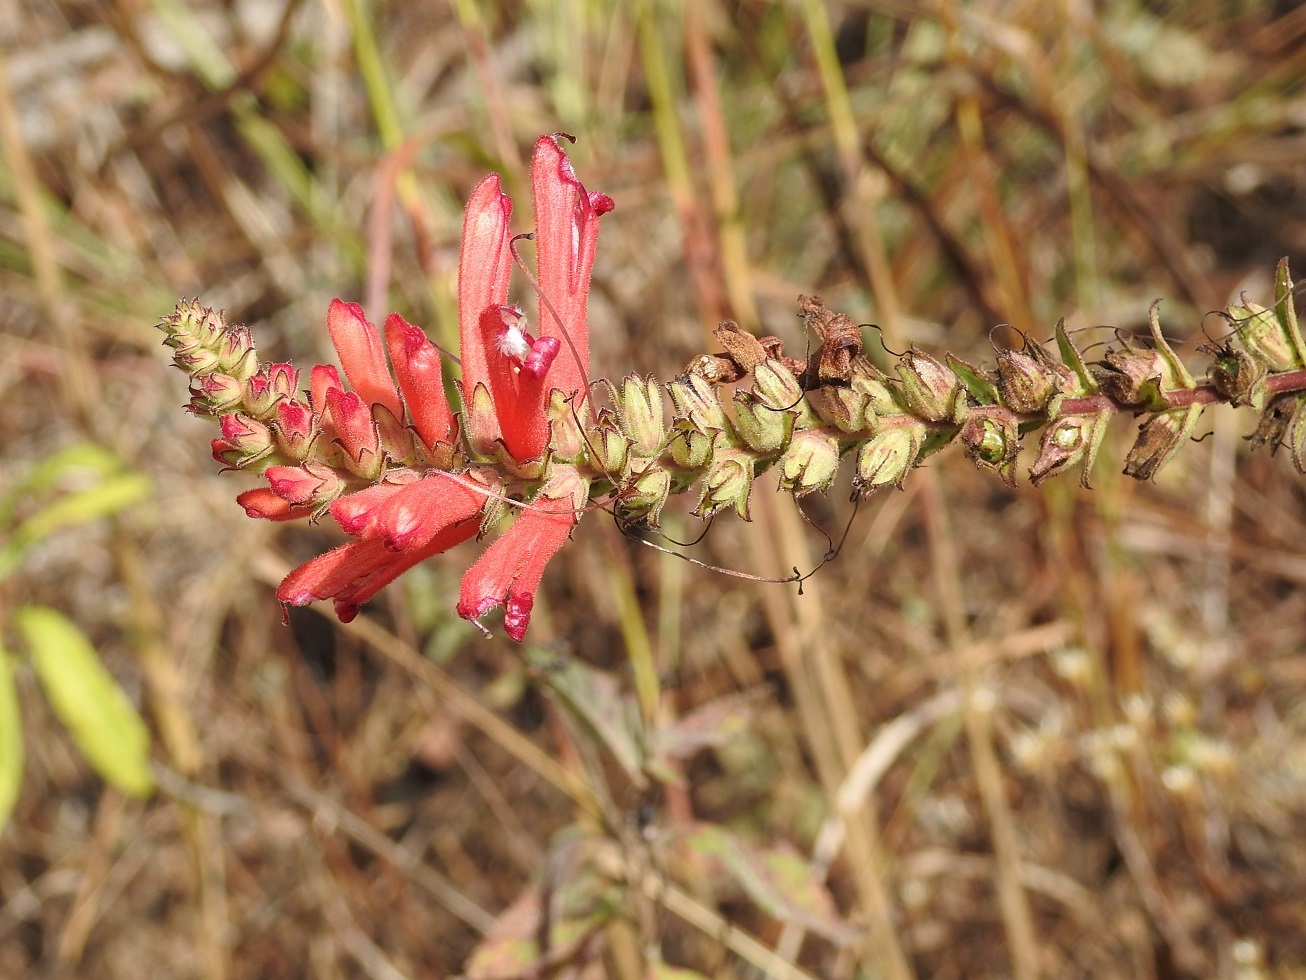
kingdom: Plantae
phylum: Tracheophyta
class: Magnoliopsida
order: Lamiales
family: Orobanchaceae
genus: Lamourouxia
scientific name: Lamourouxia viscosa
